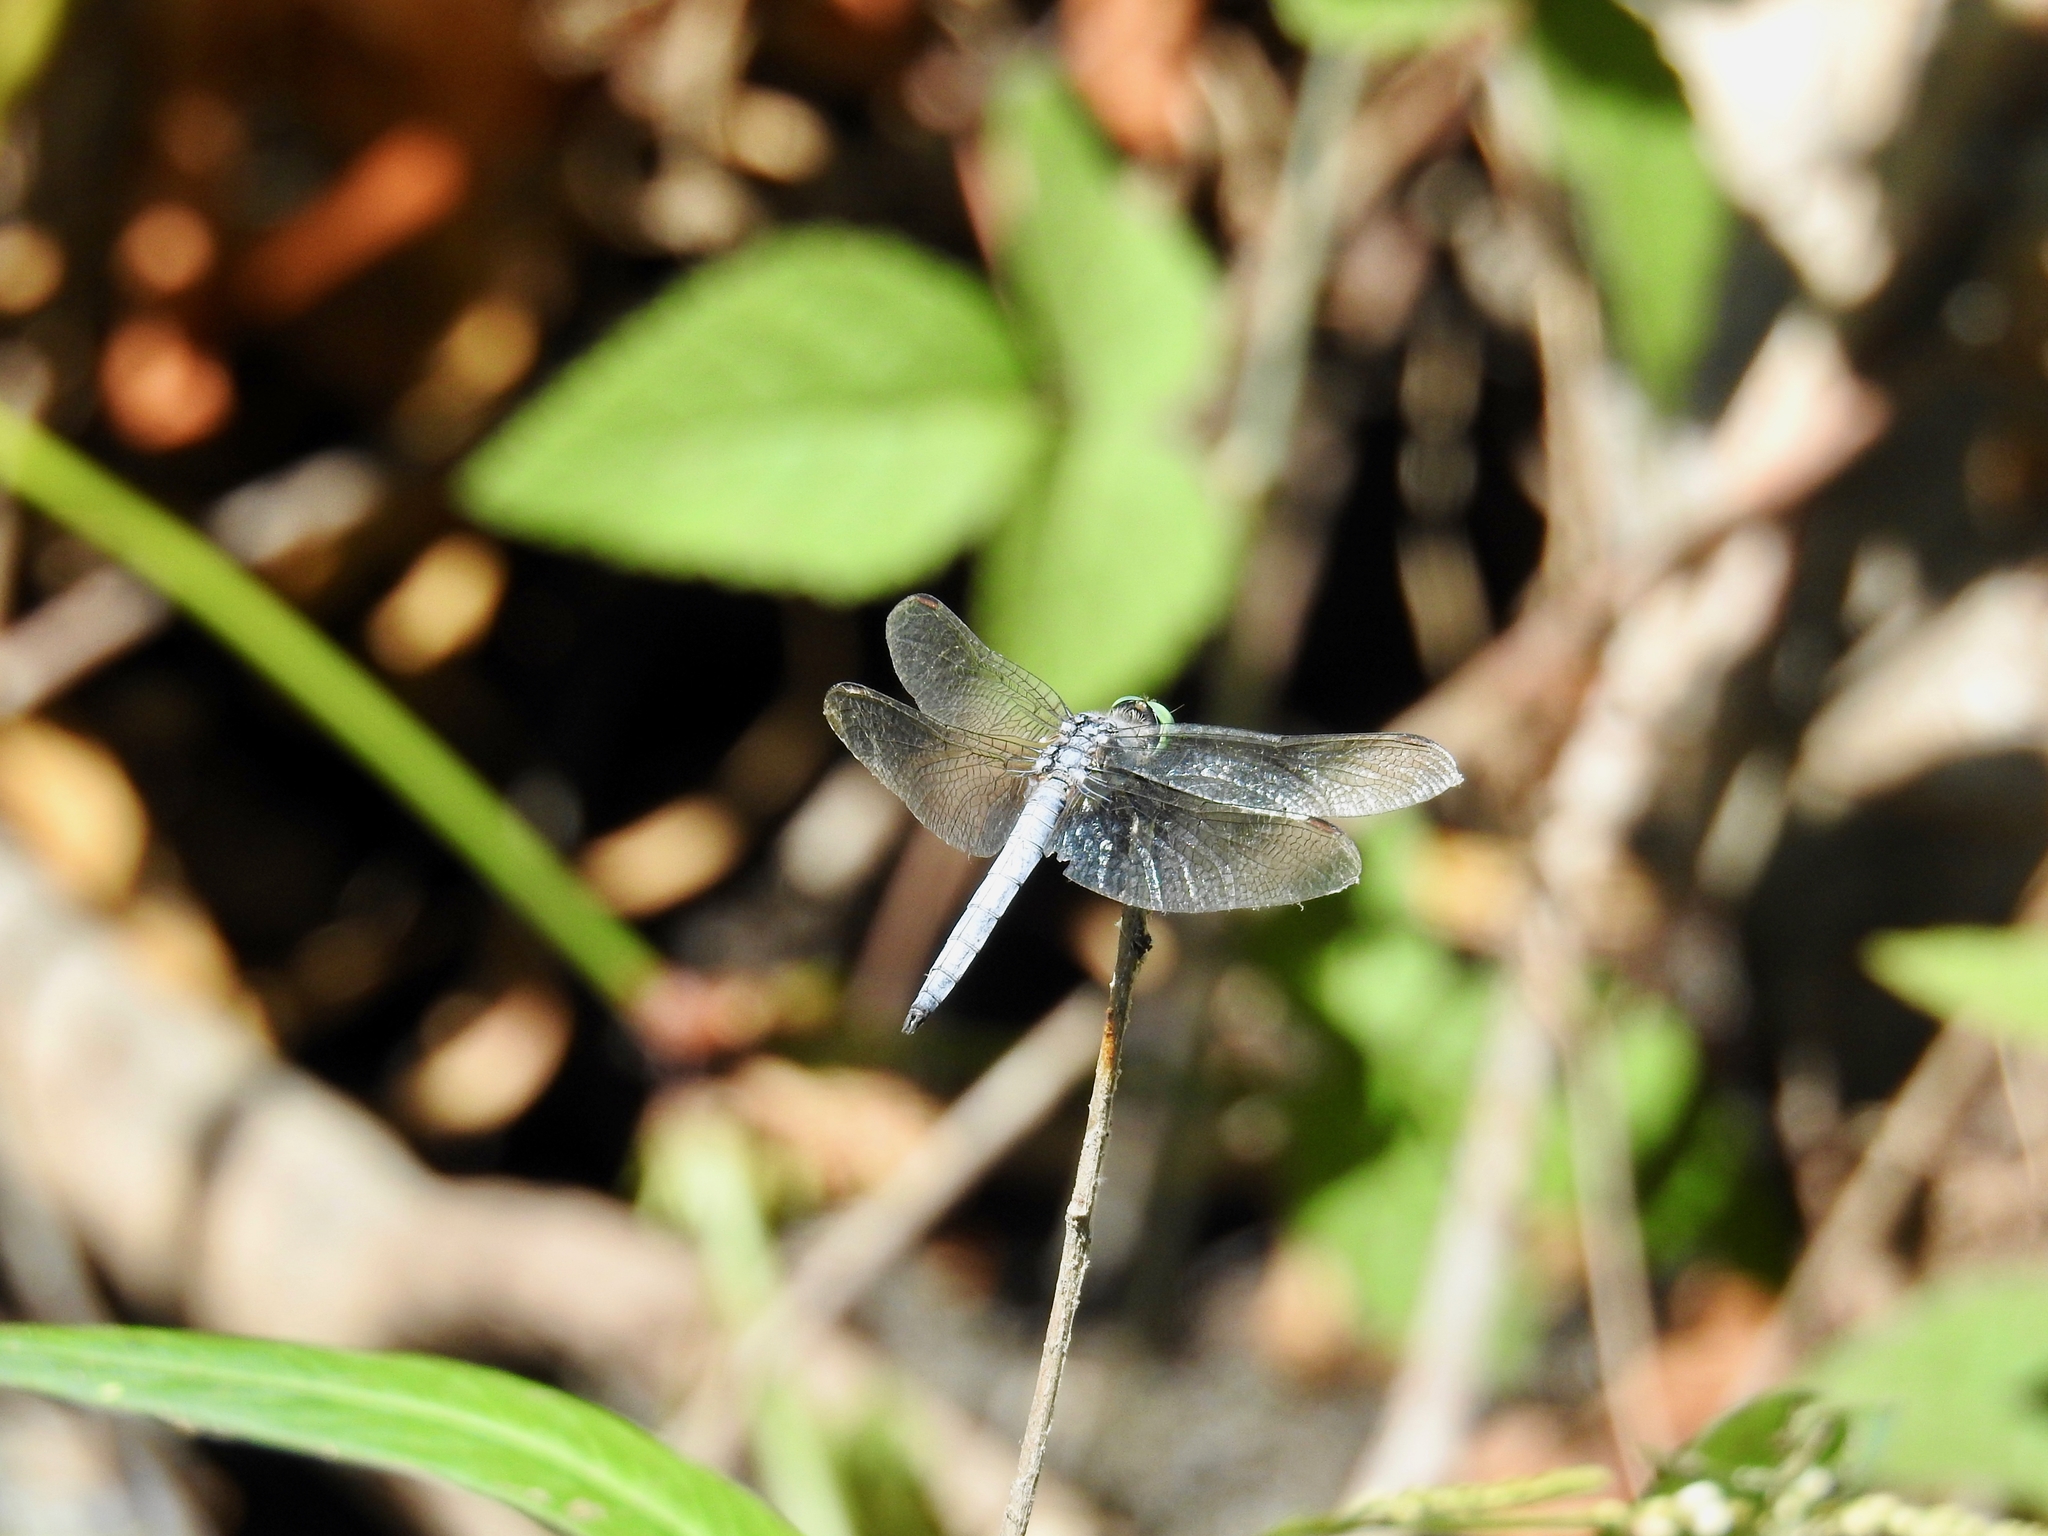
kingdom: Animalia
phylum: Arthropoda
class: Insecta
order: Odonata
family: Libellulidae
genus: Pachydiplax
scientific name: Pachydiplax longipennis
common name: Blue dasher
